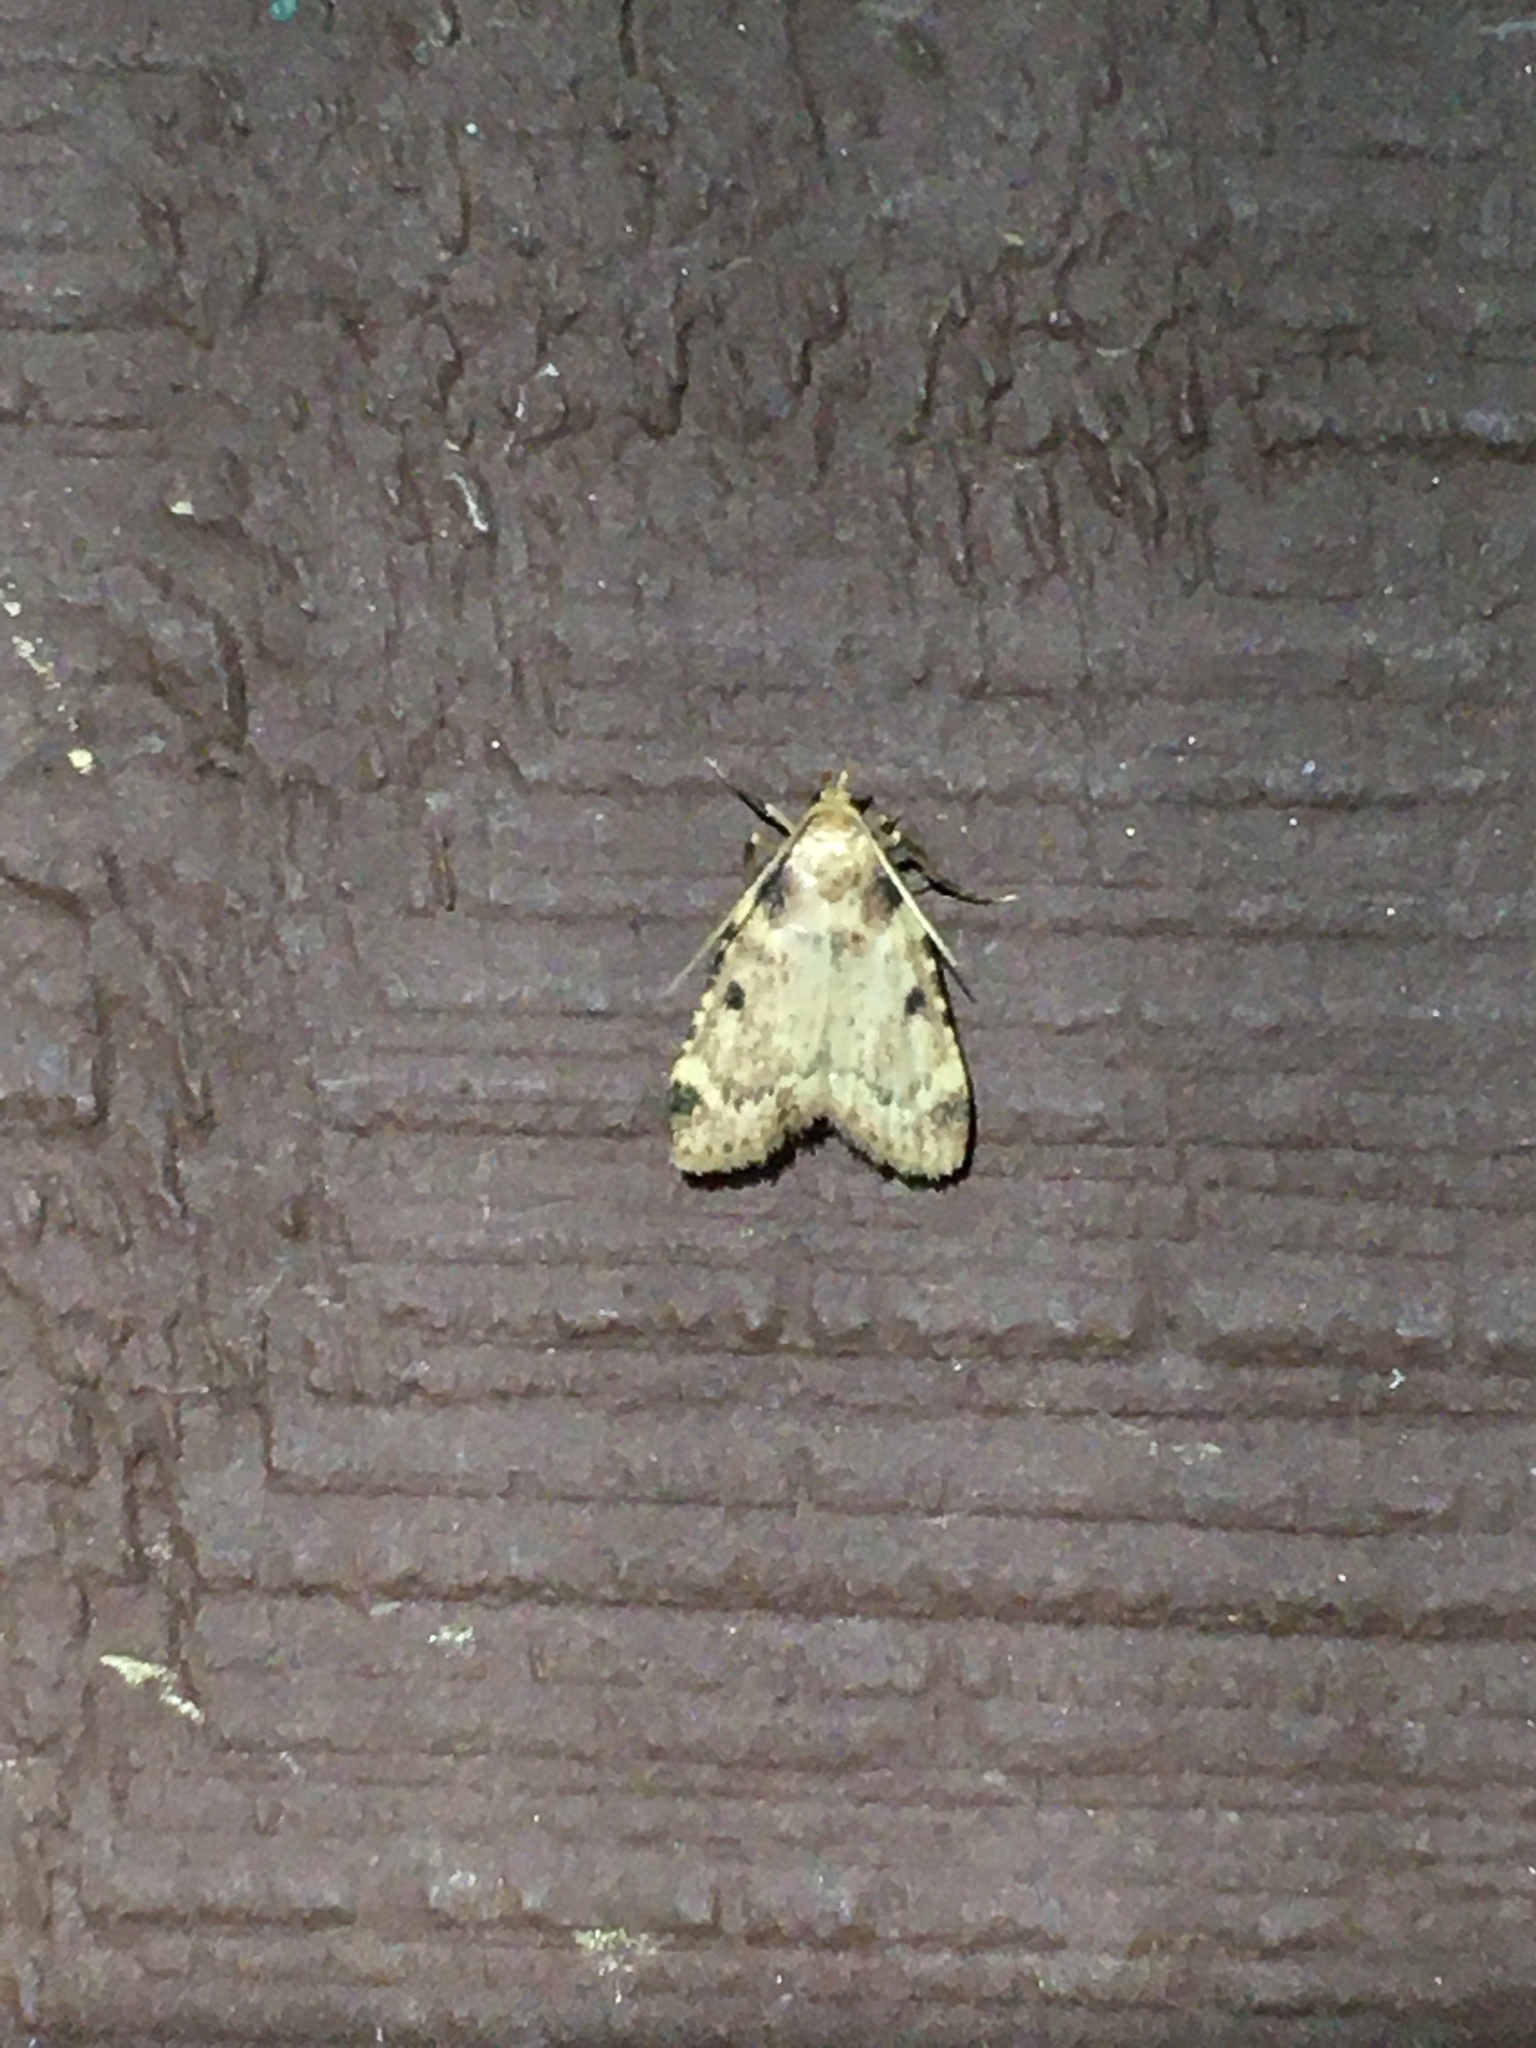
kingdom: Animalia
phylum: Arthropoda
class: Insecta
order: Lepidoptera
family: Pyralidae
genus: Aglossa
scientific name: Aglossa costiferalis
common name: Calico pyralid moth
